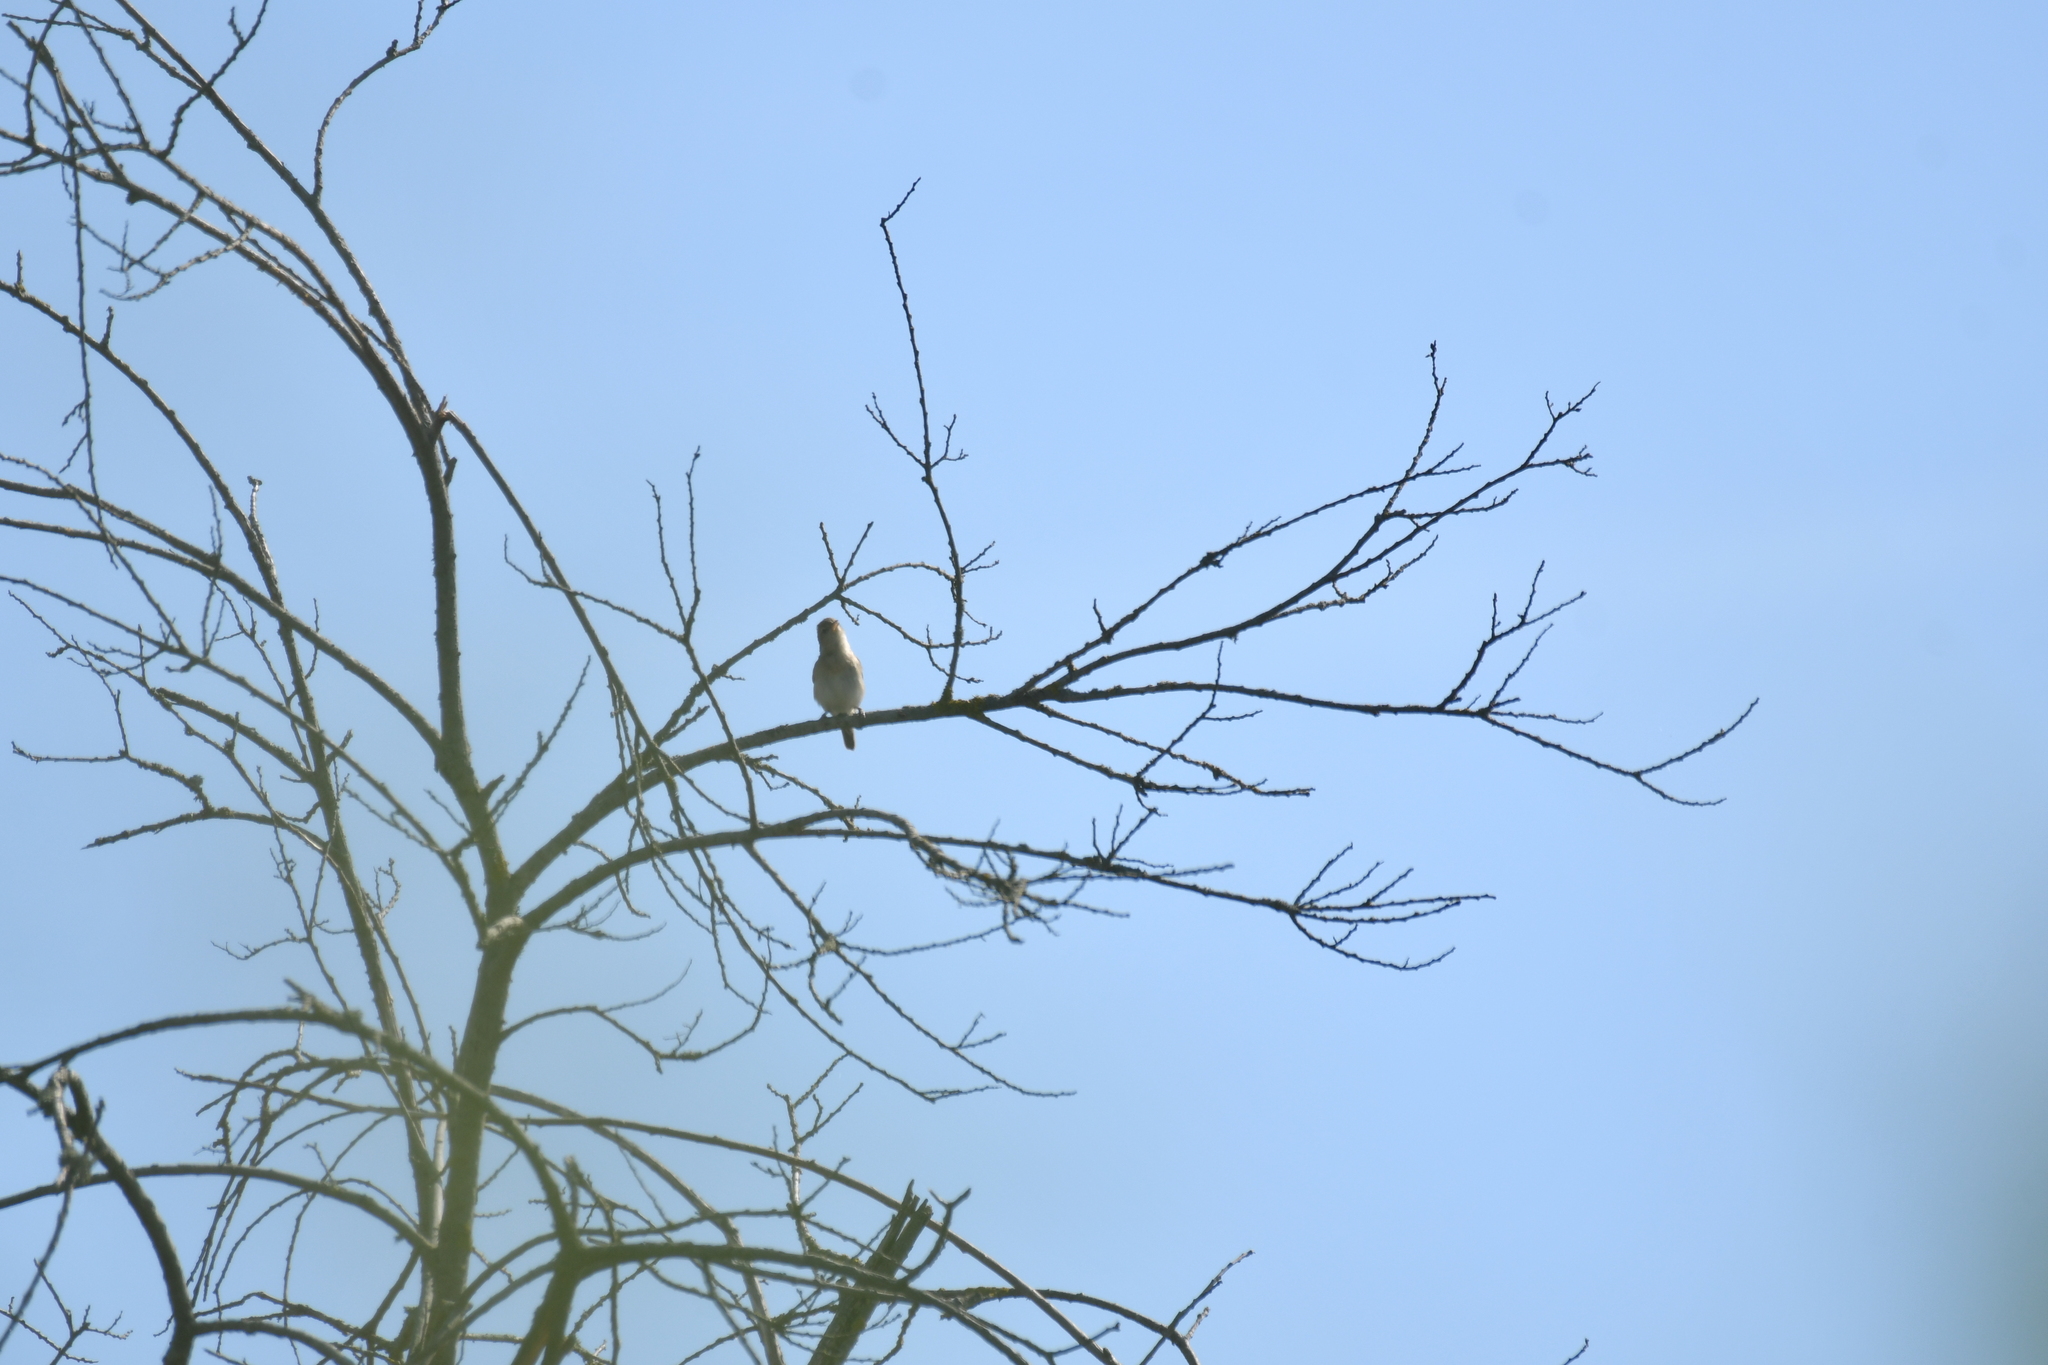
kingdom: Animalia
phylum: Chordata
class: Aves
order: Passeriformes
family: Sylviidae
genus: Sylvia
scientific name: Sylvia borin
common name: Garden warbler
